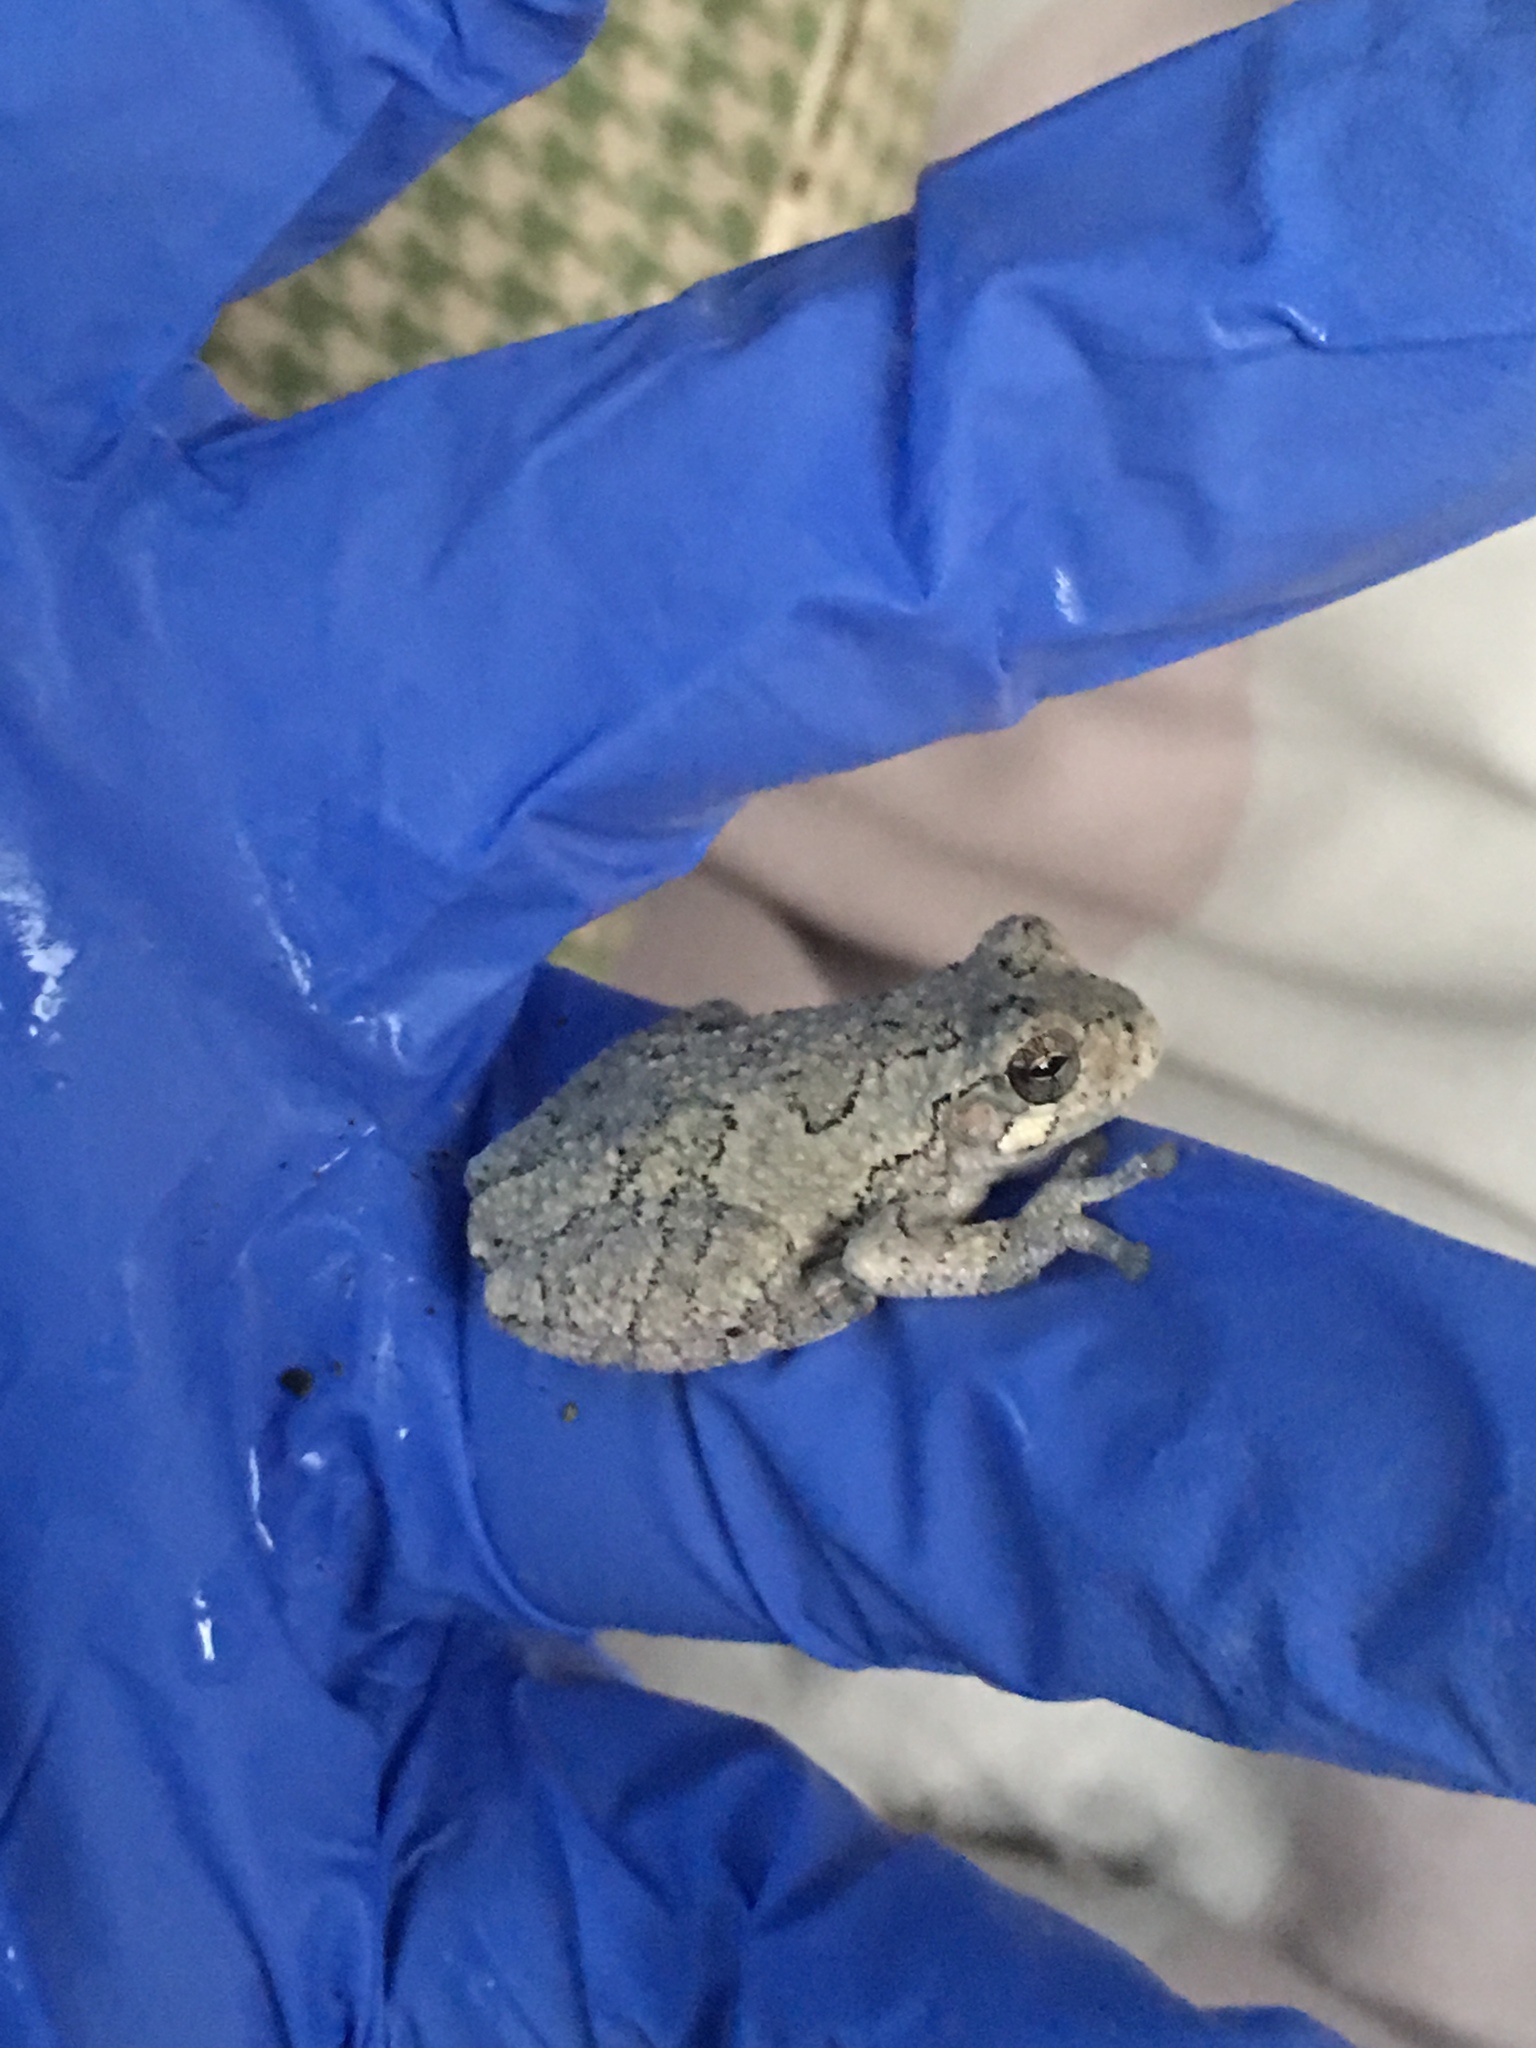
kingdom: Animalia
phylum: Chordata
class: Amphibia
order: Anura
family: Hylidae
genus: Dryophytes
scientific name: Dryophytes versicolor
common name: Gray treefrog
